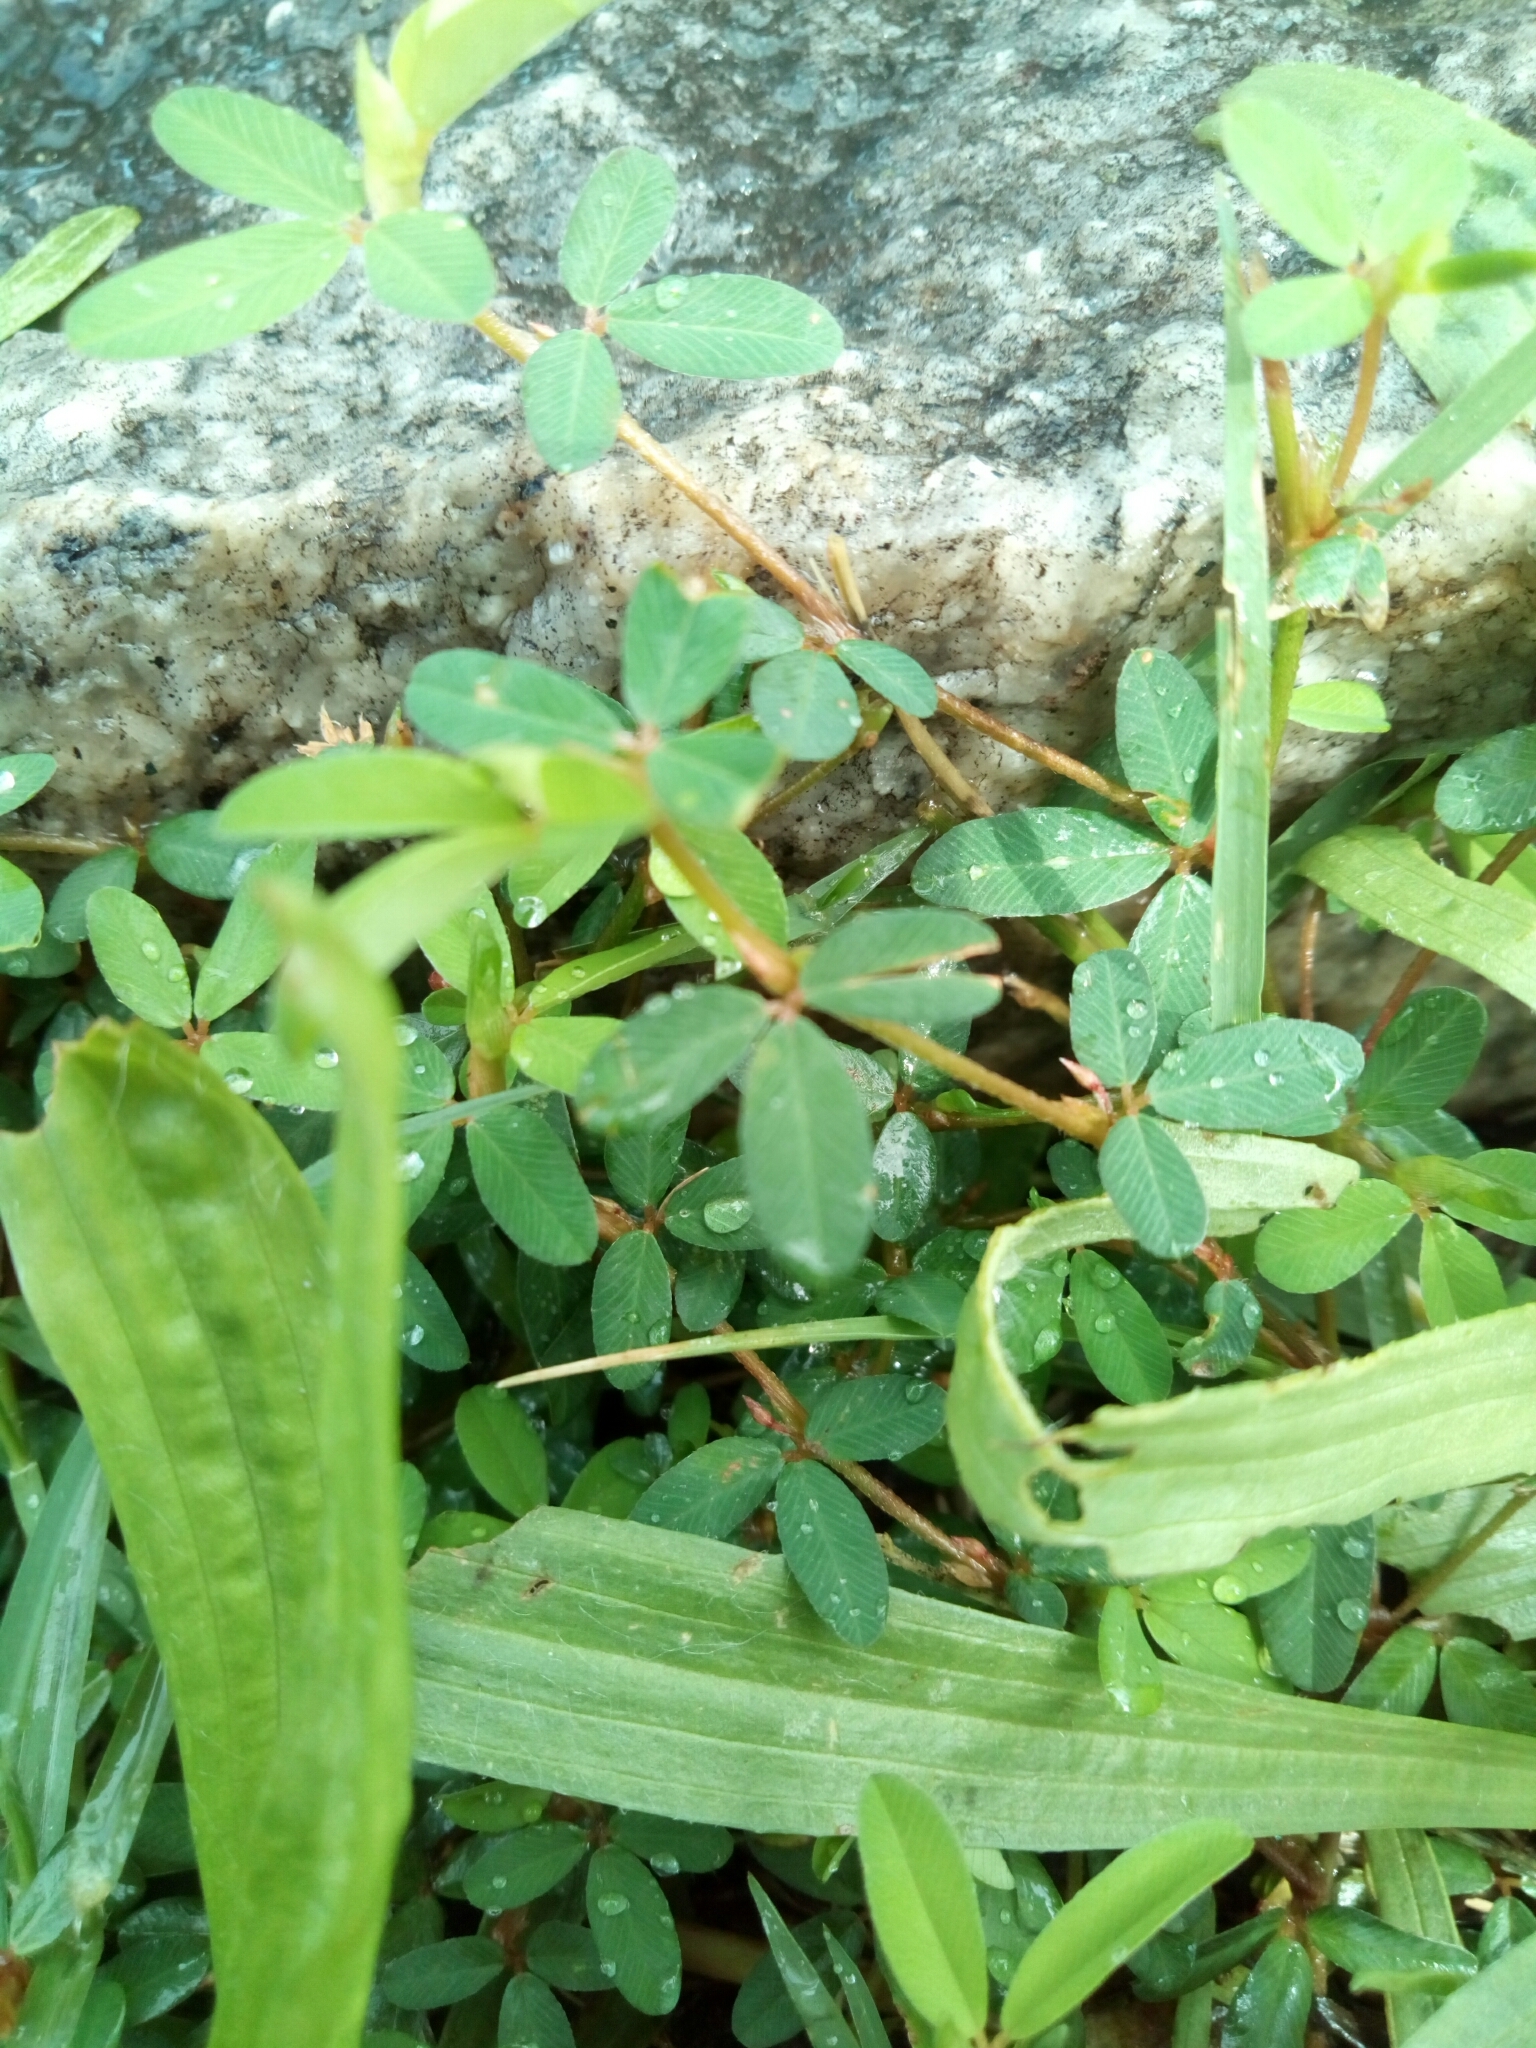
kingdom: Plantae
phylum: Tracheophyta
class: Magnoliopsida
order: Fabales
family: Fabaceae
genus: Kummerowia
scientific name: Kummerowia striata
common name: Japanese clover
